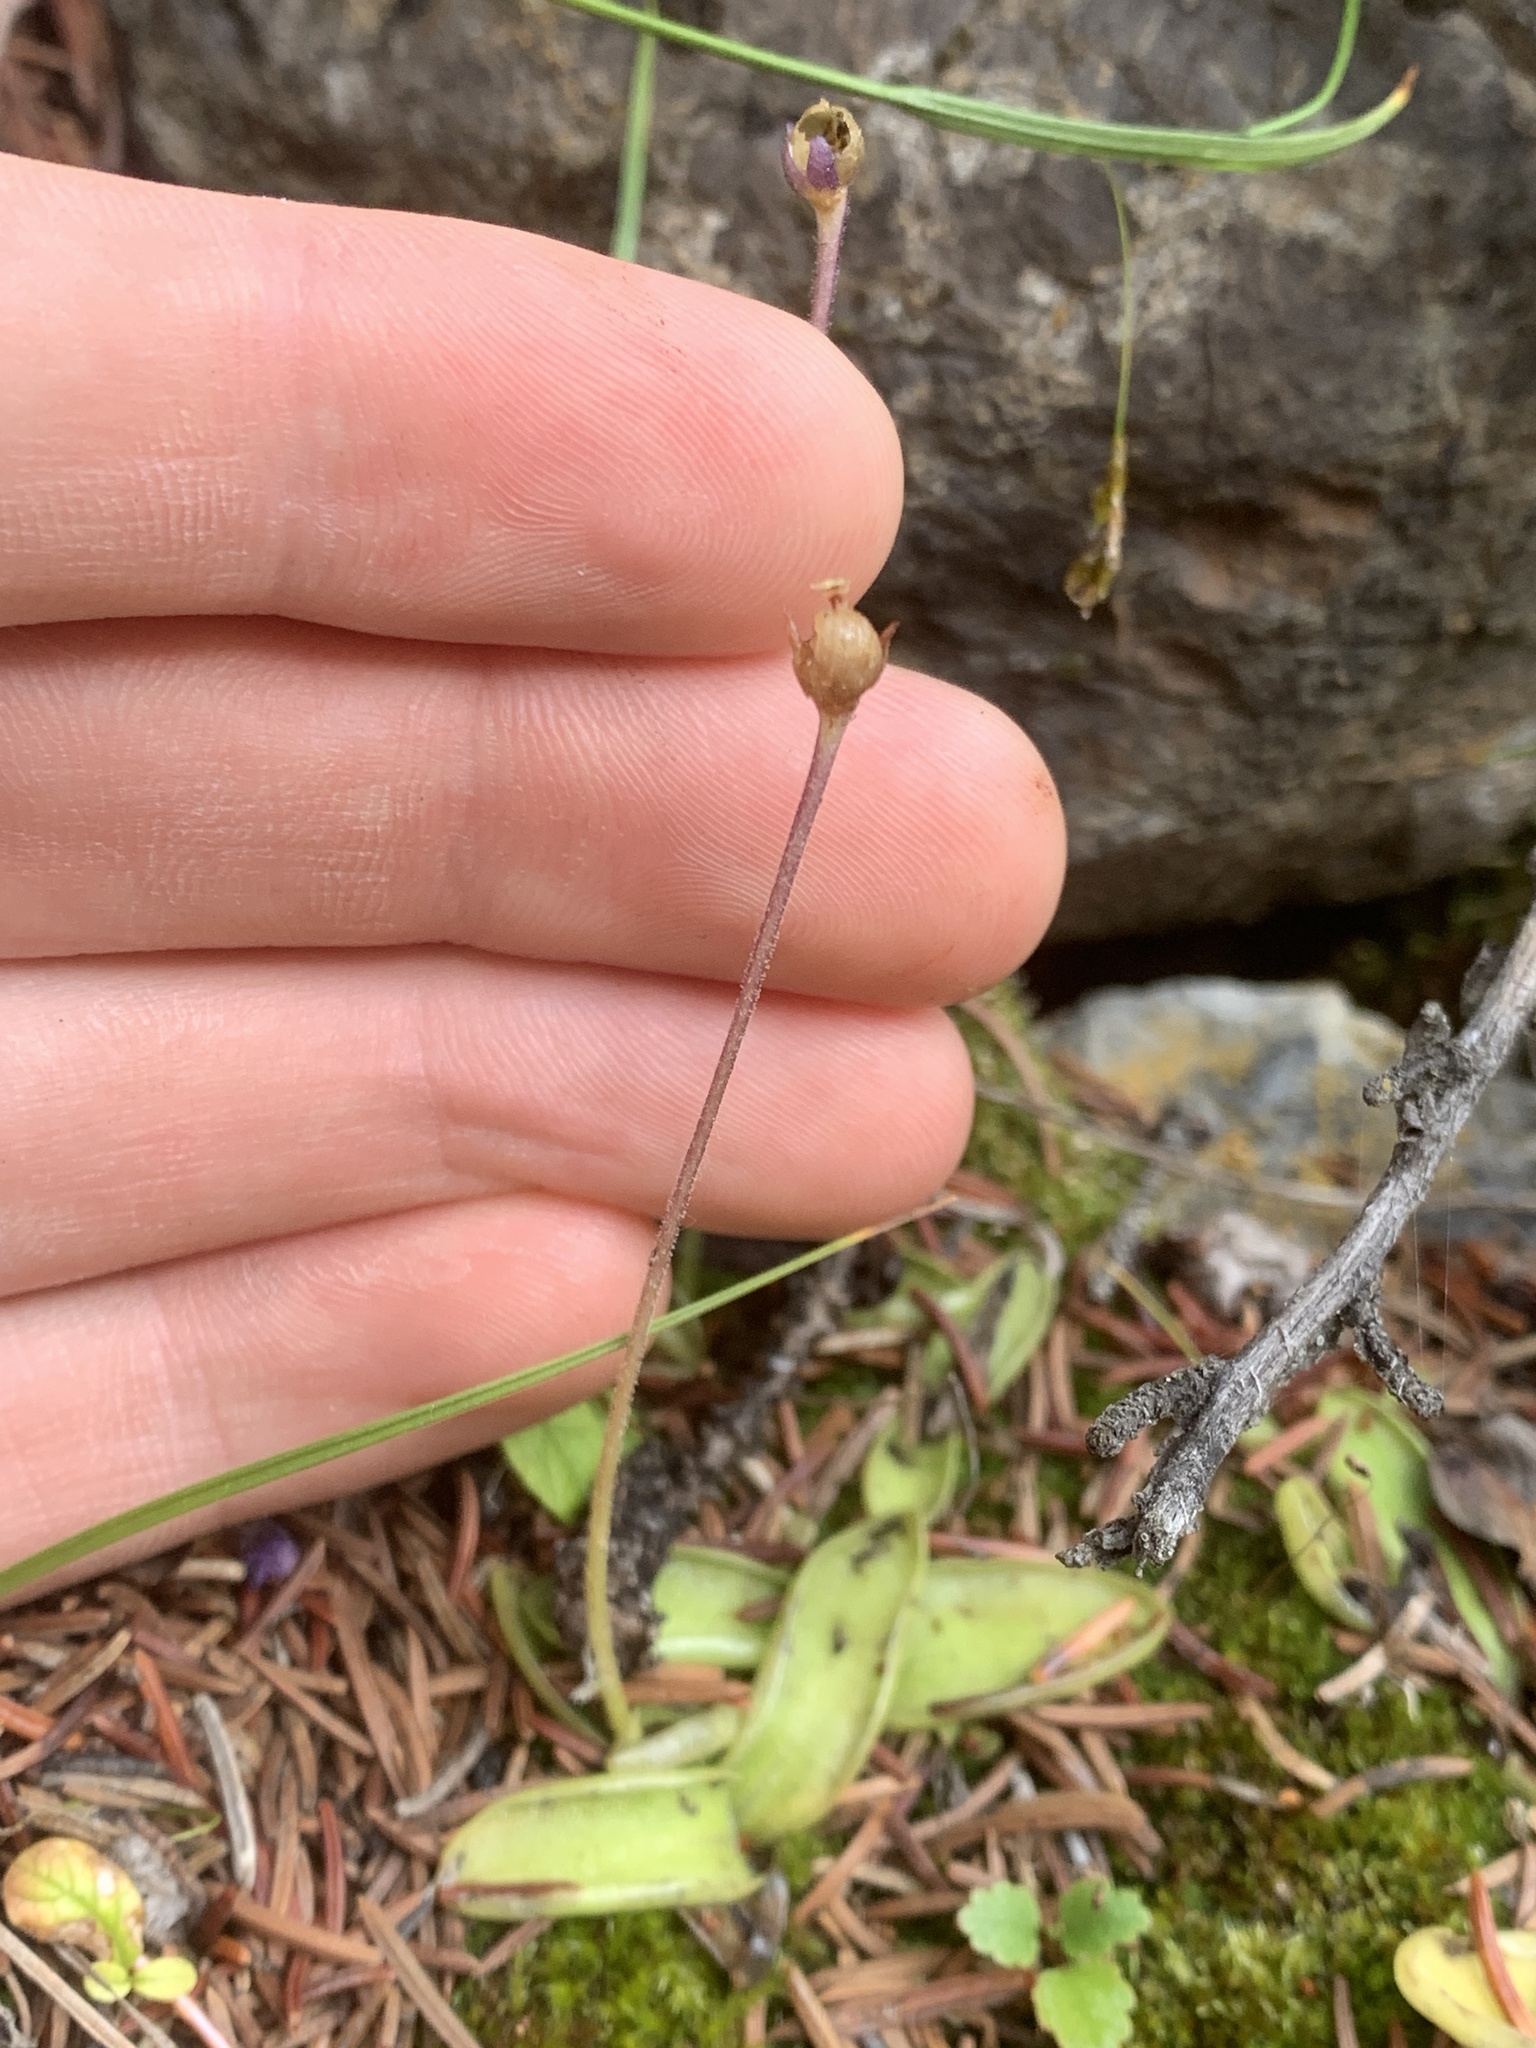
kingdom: Plantae
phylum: Tracheophyta
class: Magnoliopsida
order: Lamiales
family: Lentibulariaceae
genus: Pinguicula
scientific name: Pinguicula vulgaris
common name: Common butterwort
